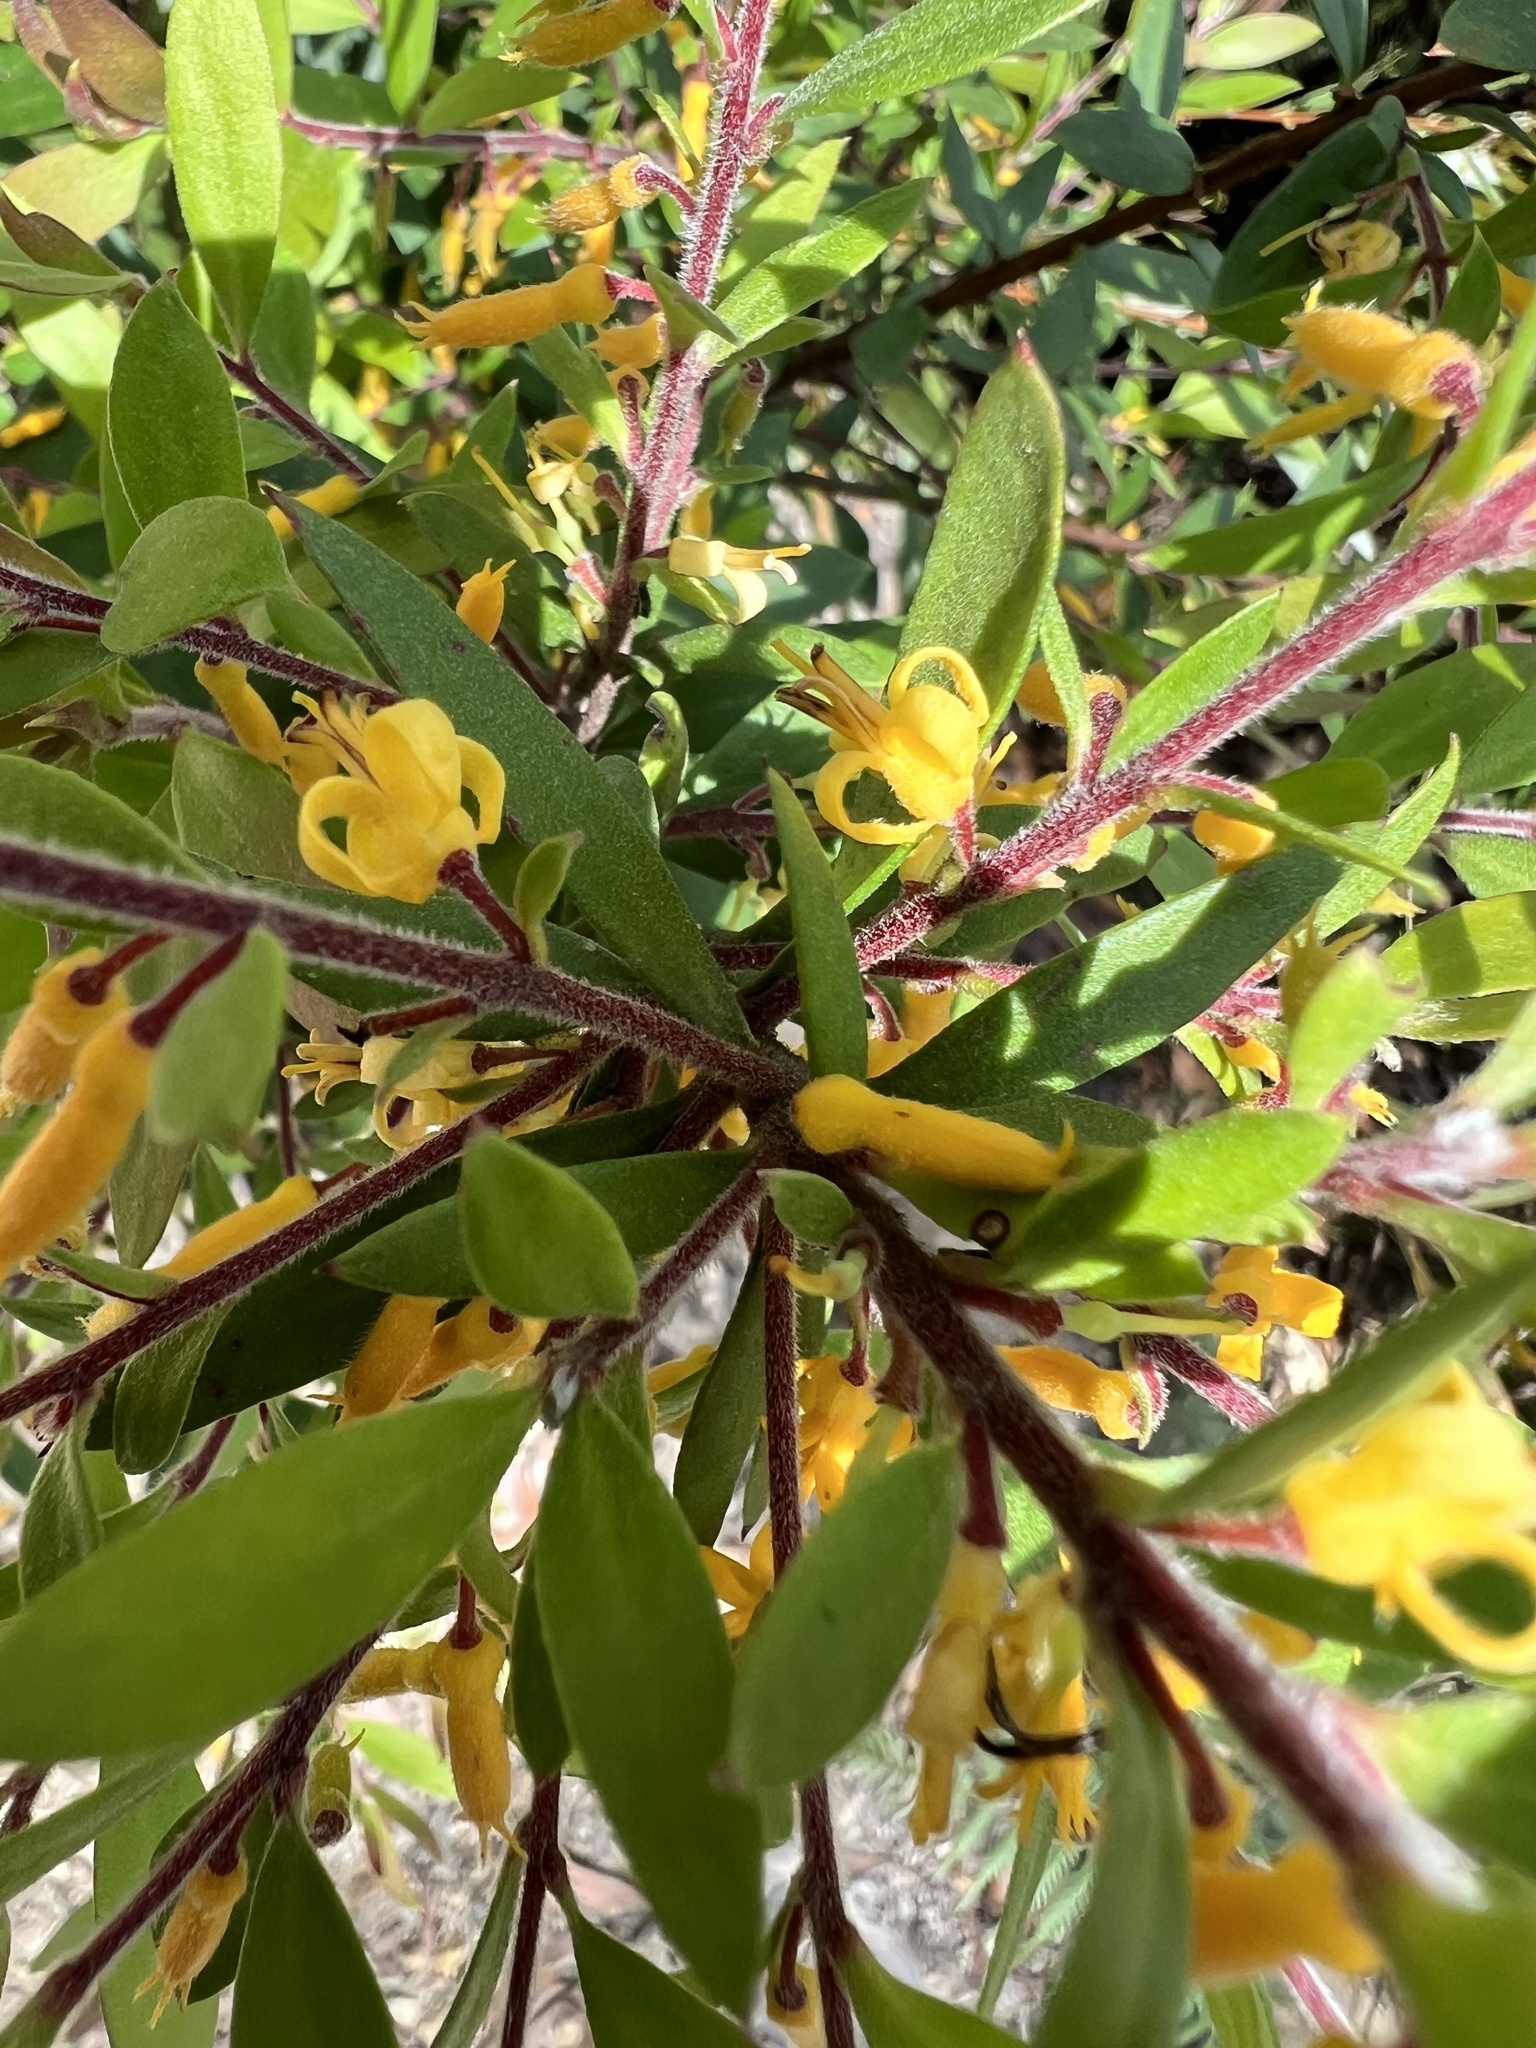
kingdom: Plantae
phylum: Tracheophyta
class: Magnoliopsida
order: Proteales
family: Proteaceae
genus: Persoonia
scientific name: Persoonia myrtilloides
